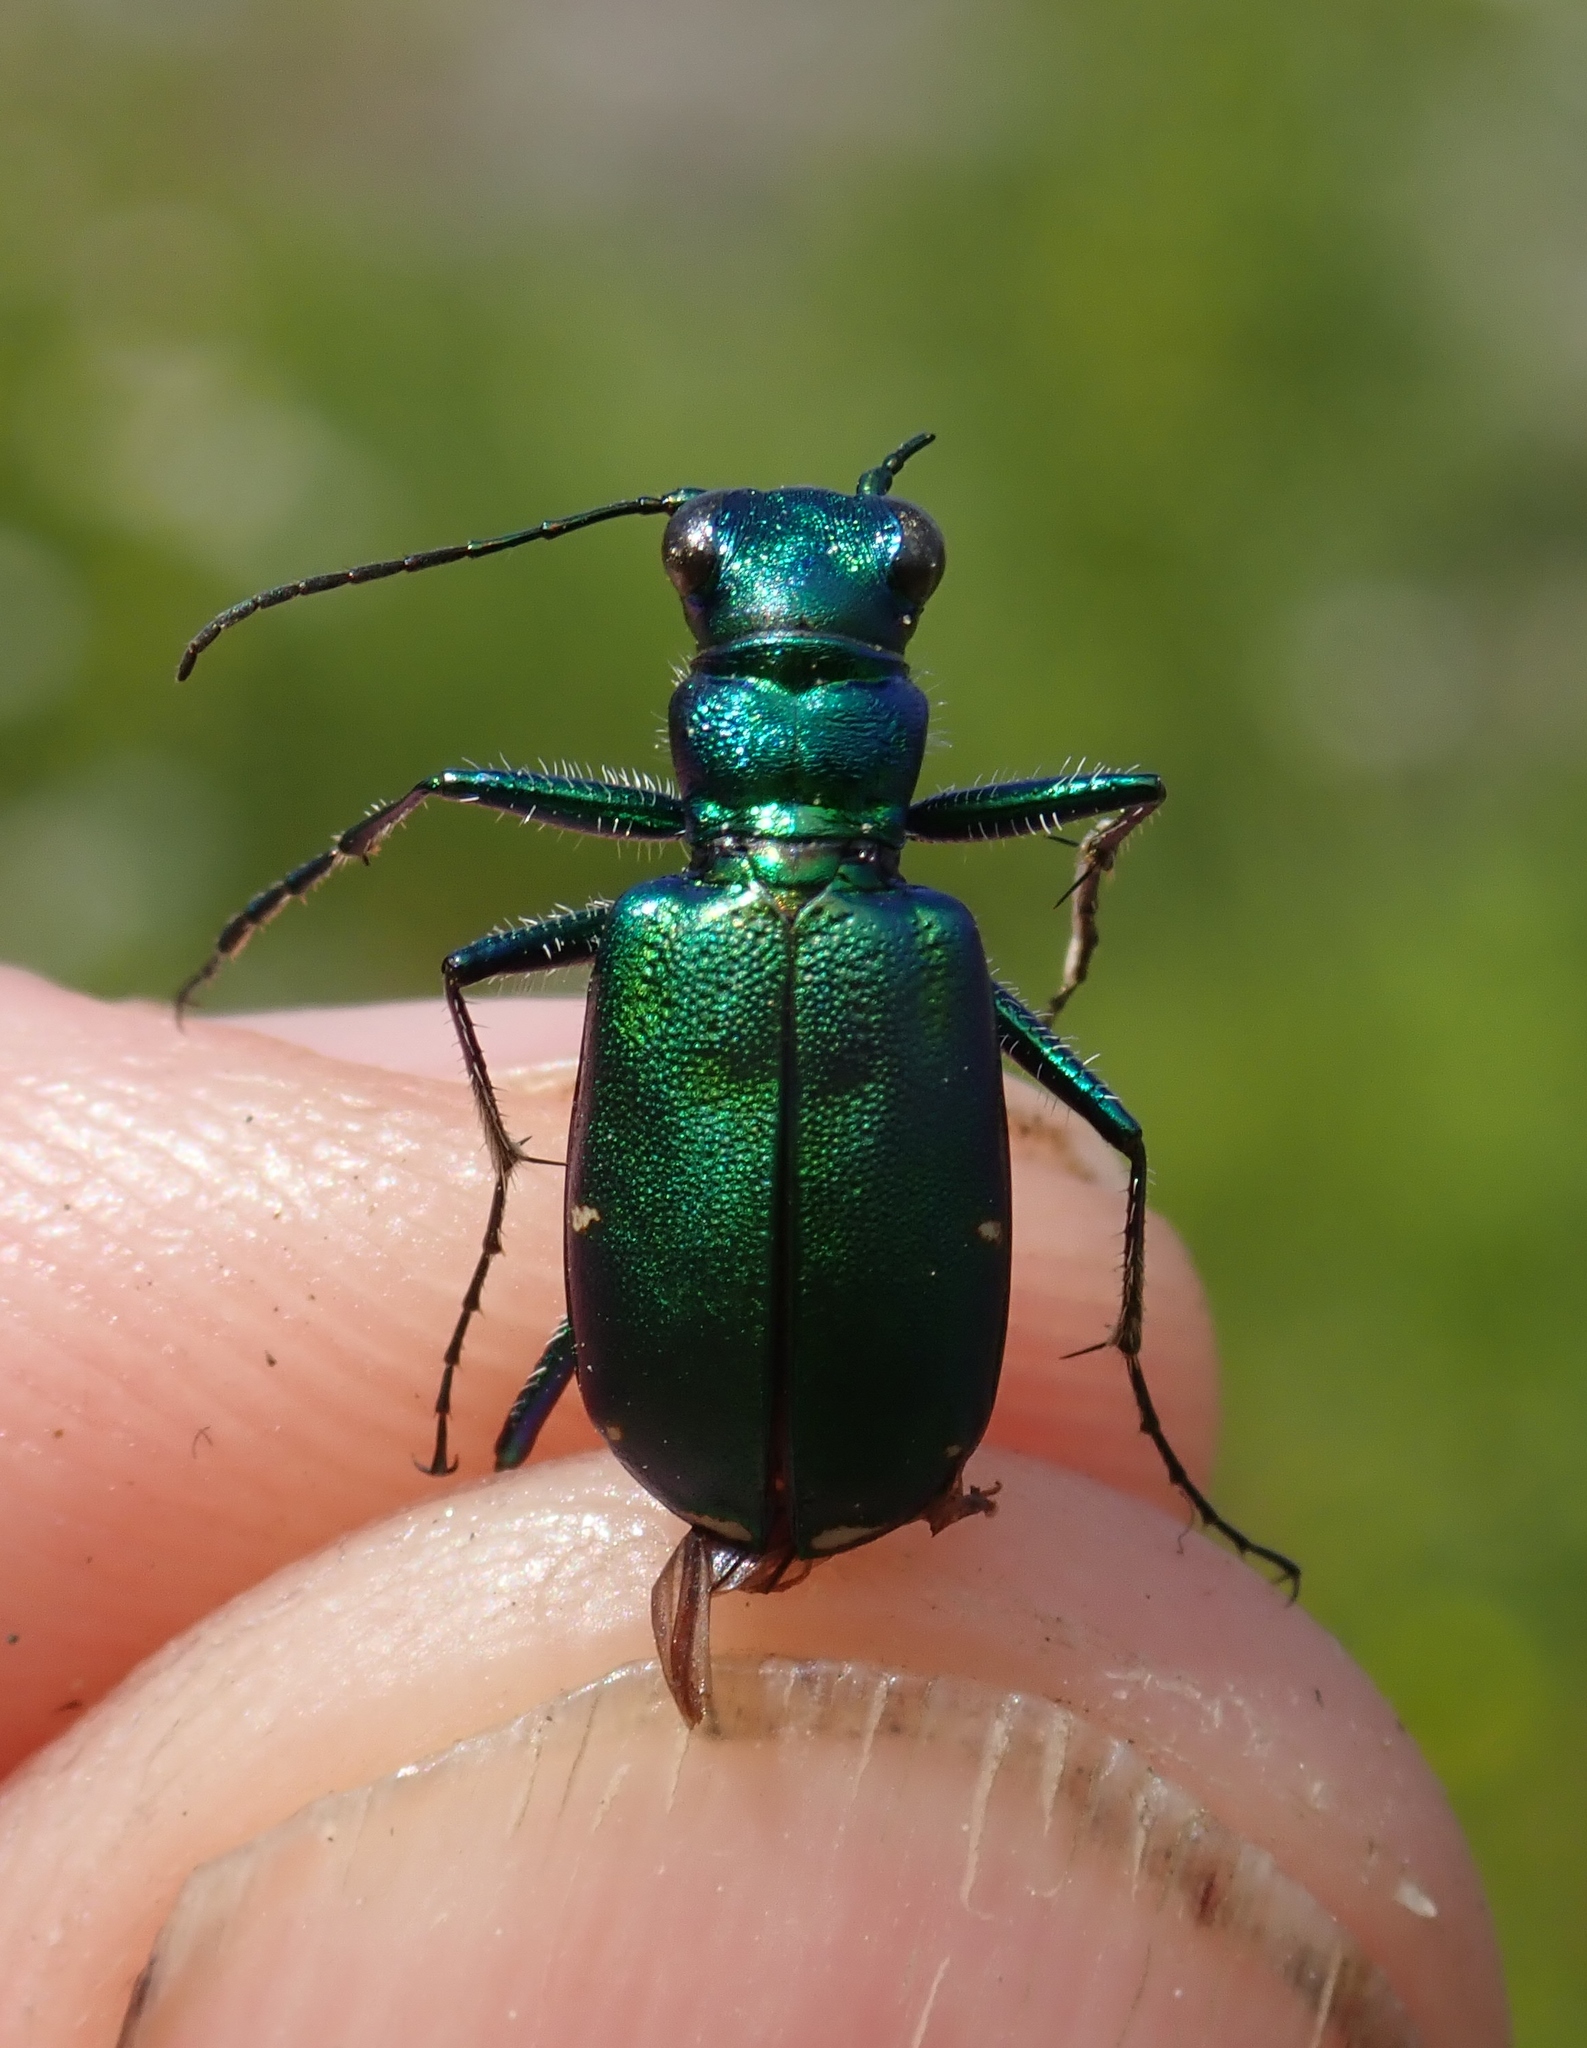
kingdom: Animalia
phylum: Arthropoda
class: Insecta
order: Coleoptera
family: Carabidae
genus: Cicindela
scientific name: Cicindela denikei
